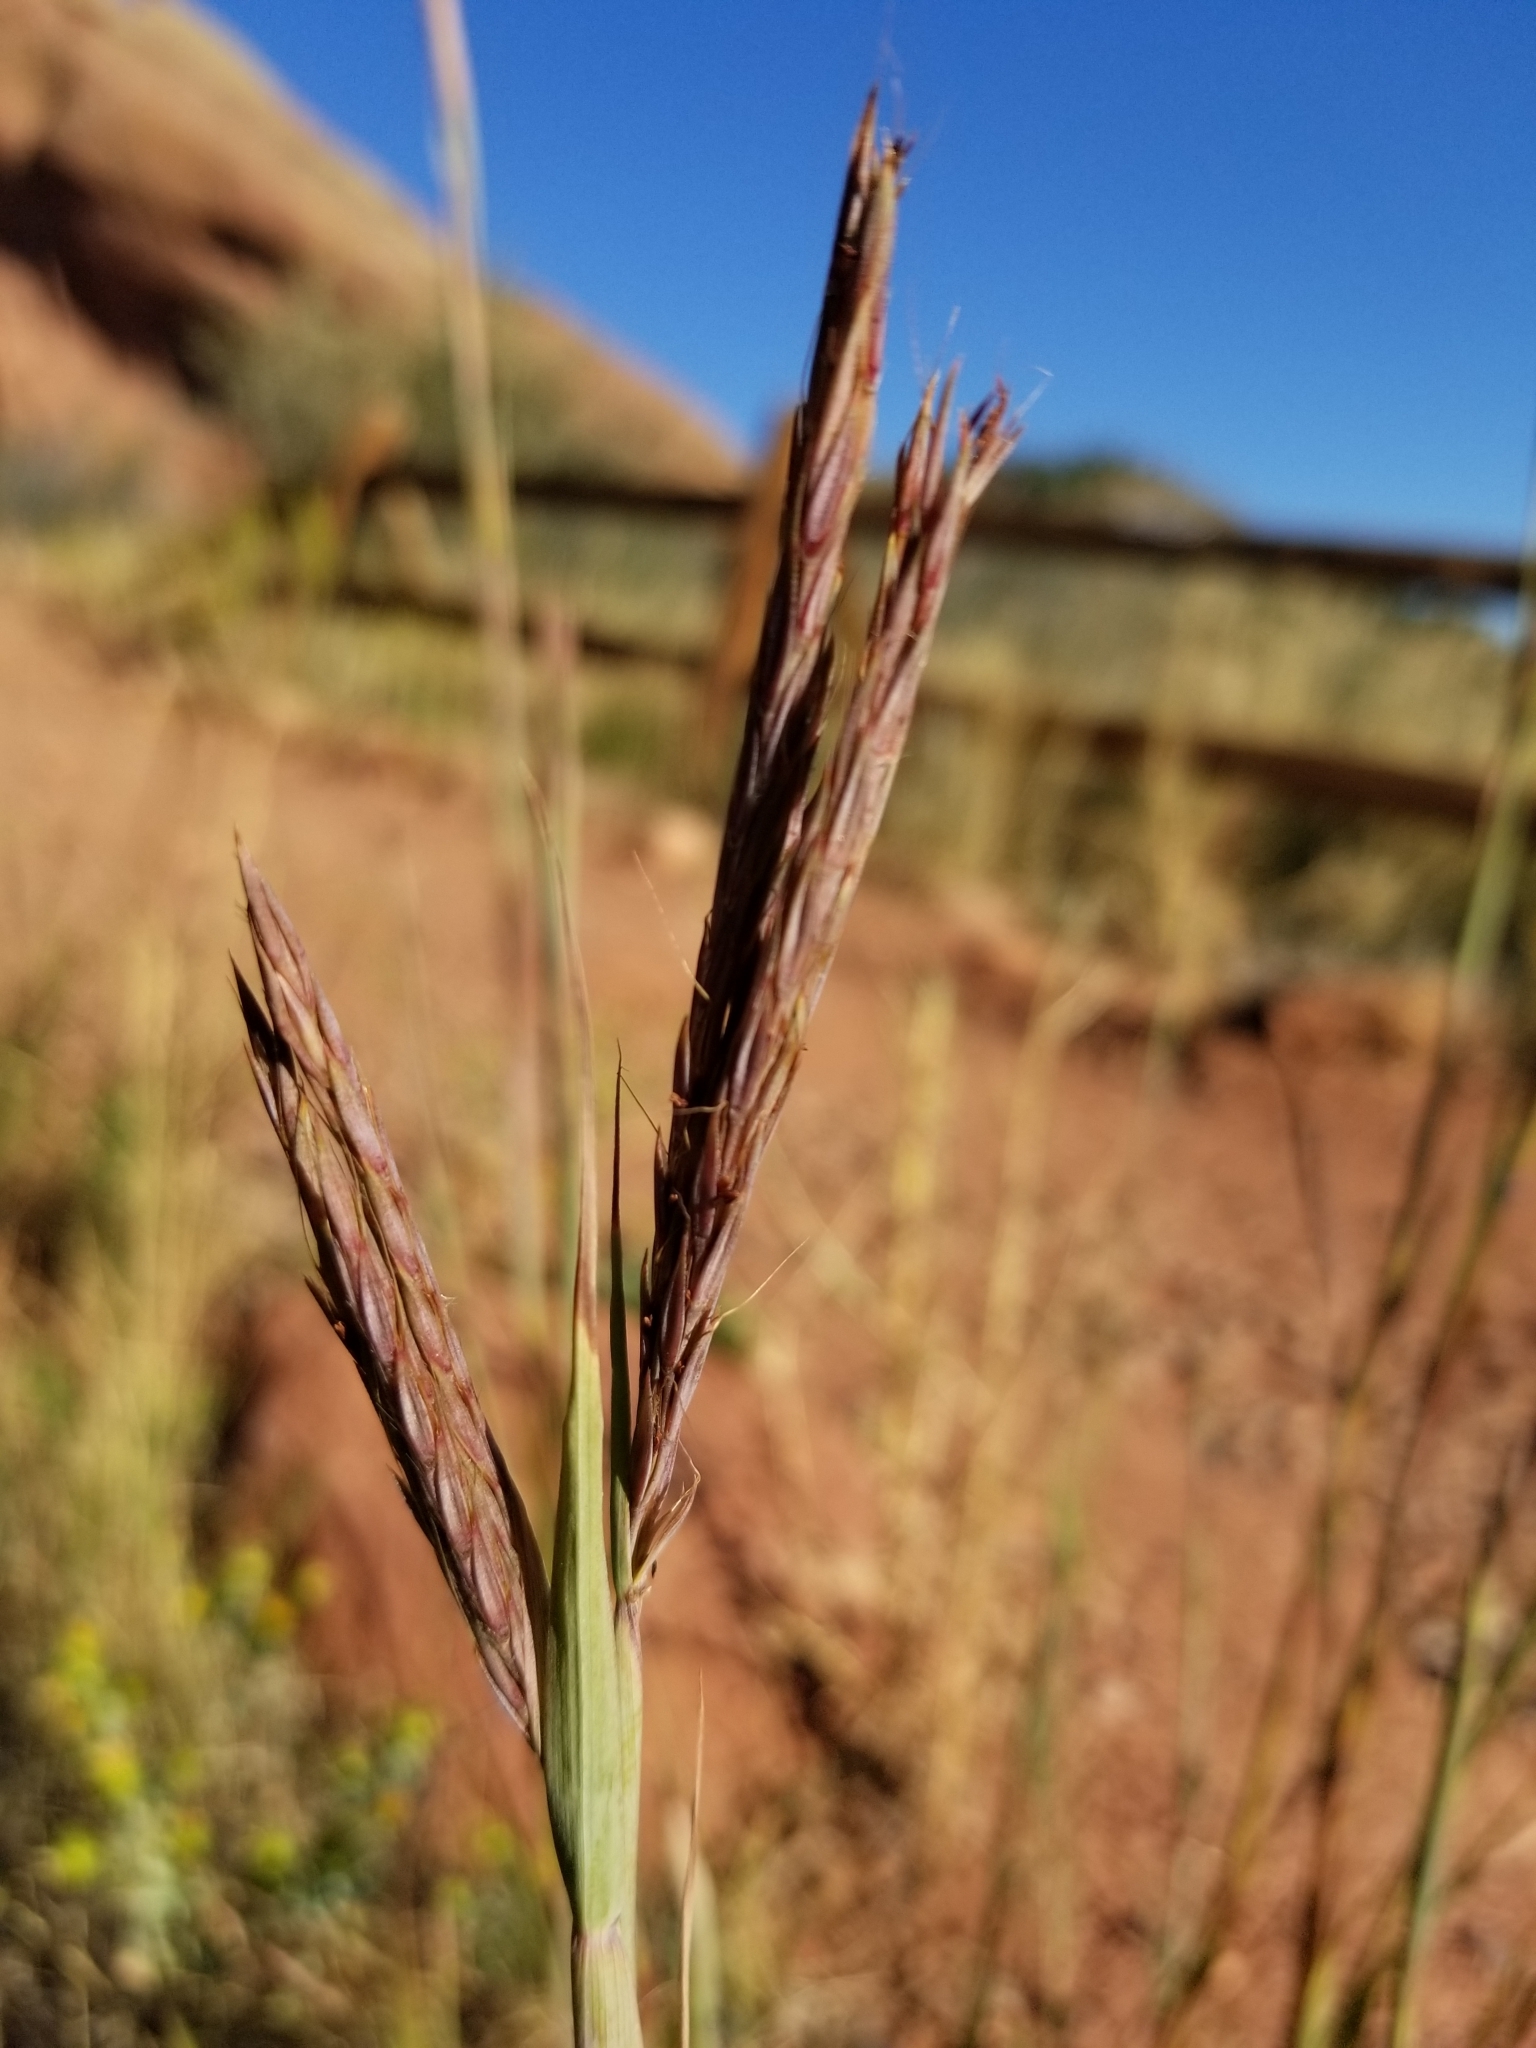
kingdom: Plantae
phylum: Tracheophyta
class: Liliopsida
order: Poales
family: Poaceae
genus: Andropogon
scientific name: Andropogon gerardi
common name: Big bluestem
